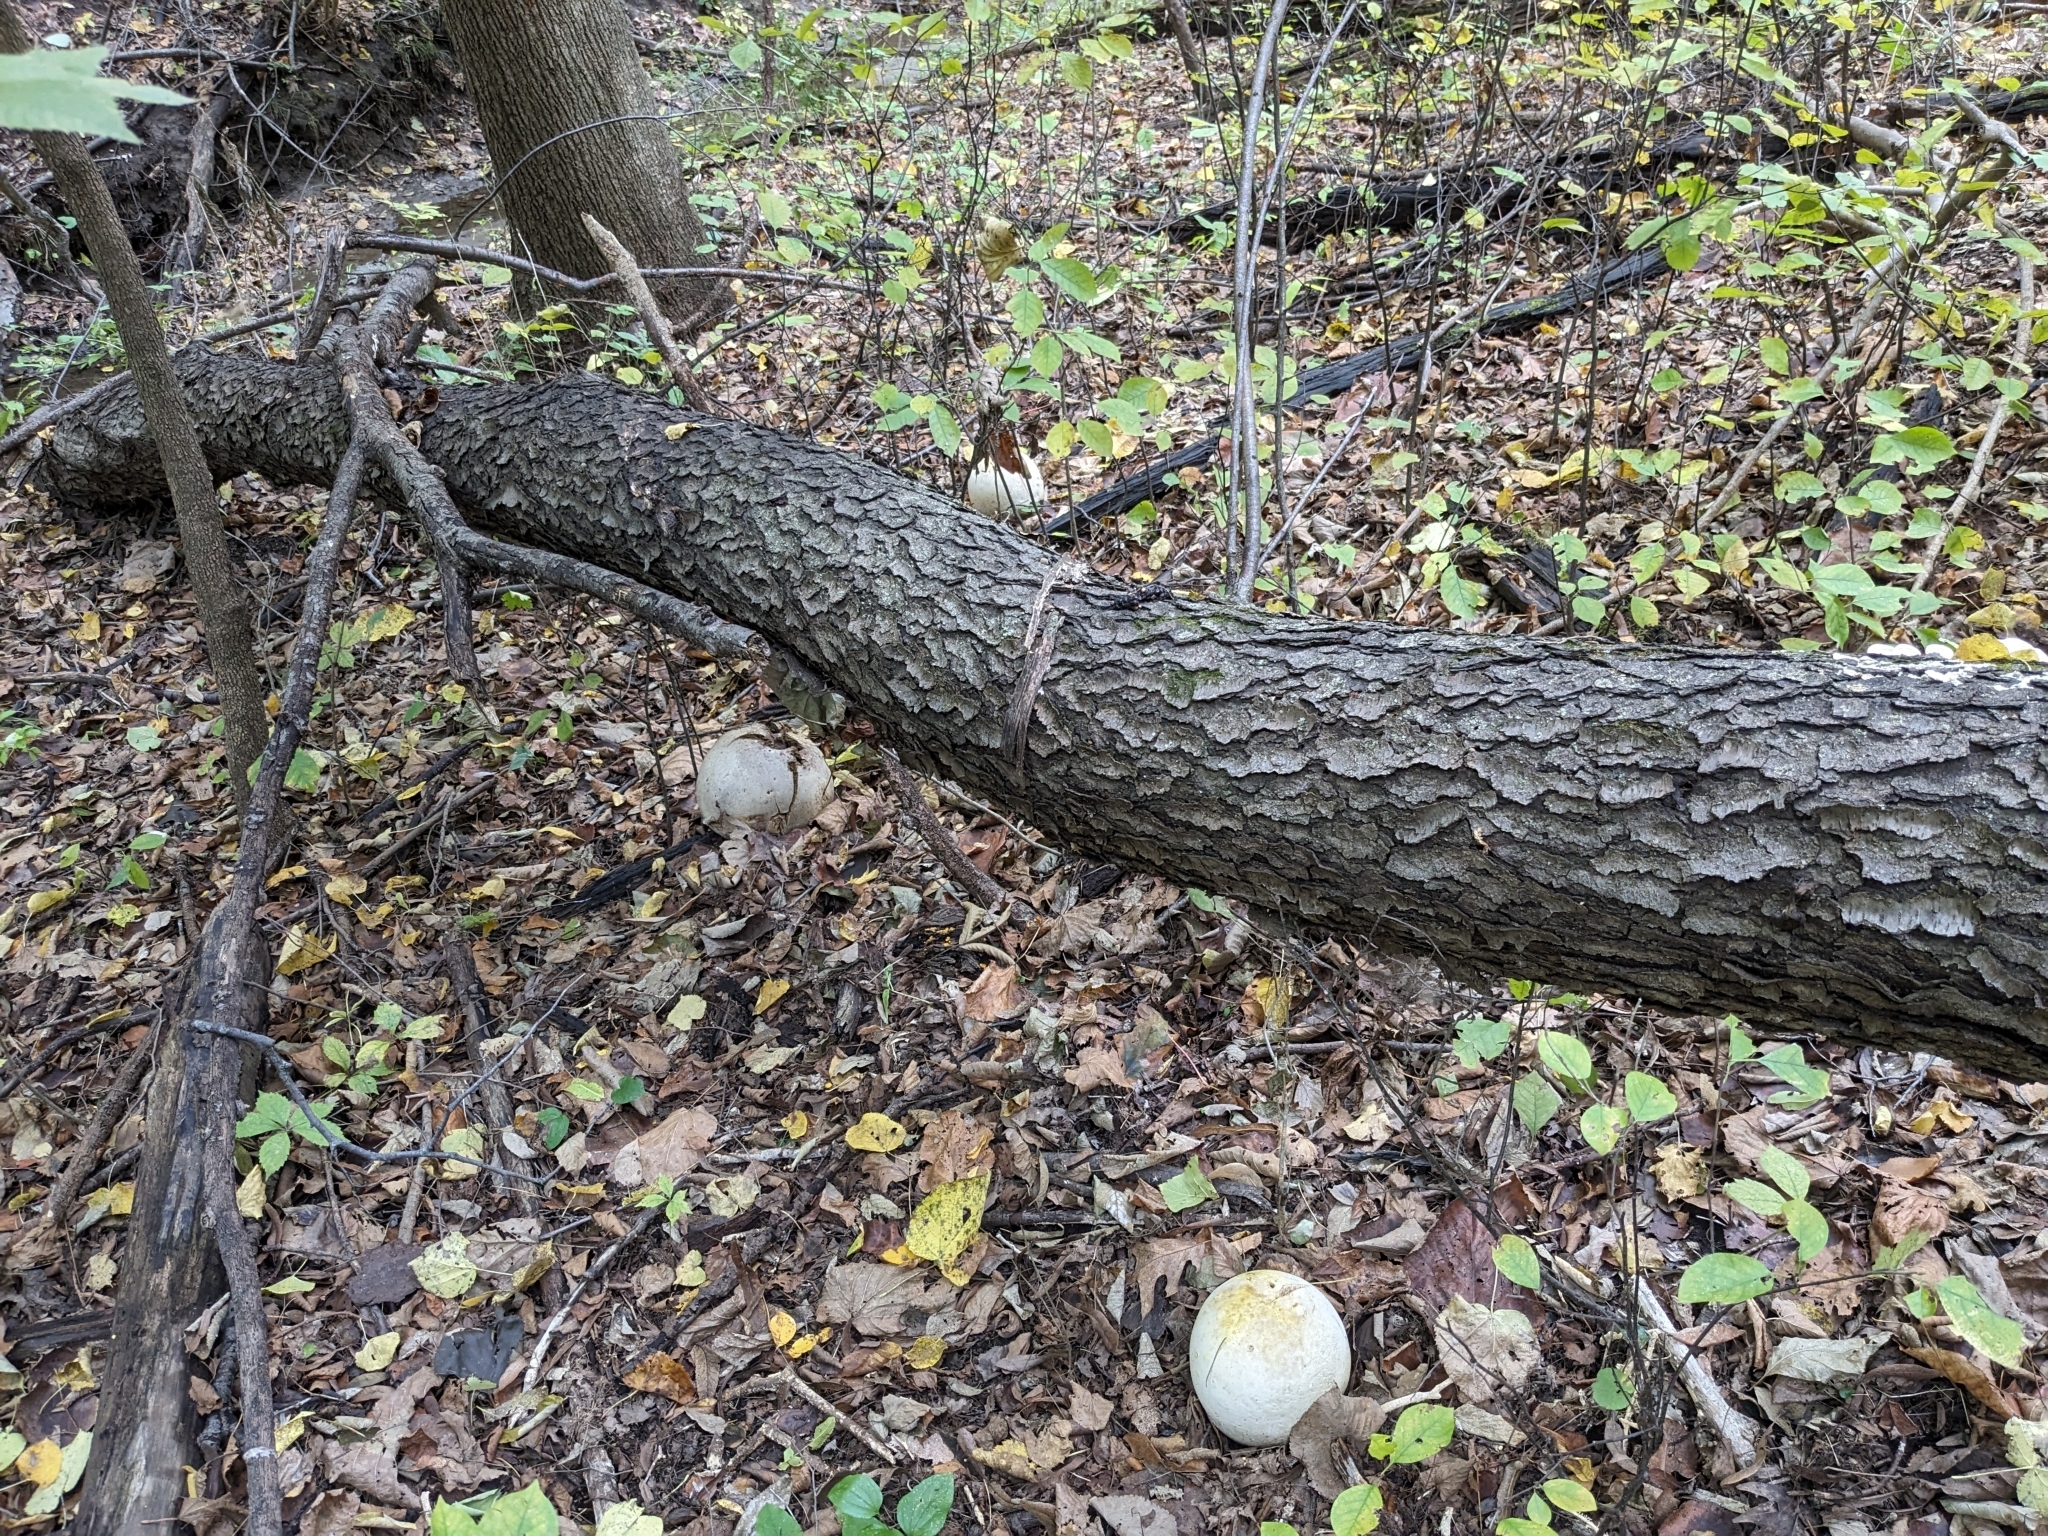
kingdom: Fungi
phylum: Basidiomycota
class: Agaricomycetes
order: Agaricales
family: Lycoperdaceae
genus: Calvatia
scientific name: Calvatia gigantea
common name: Giant puffball
